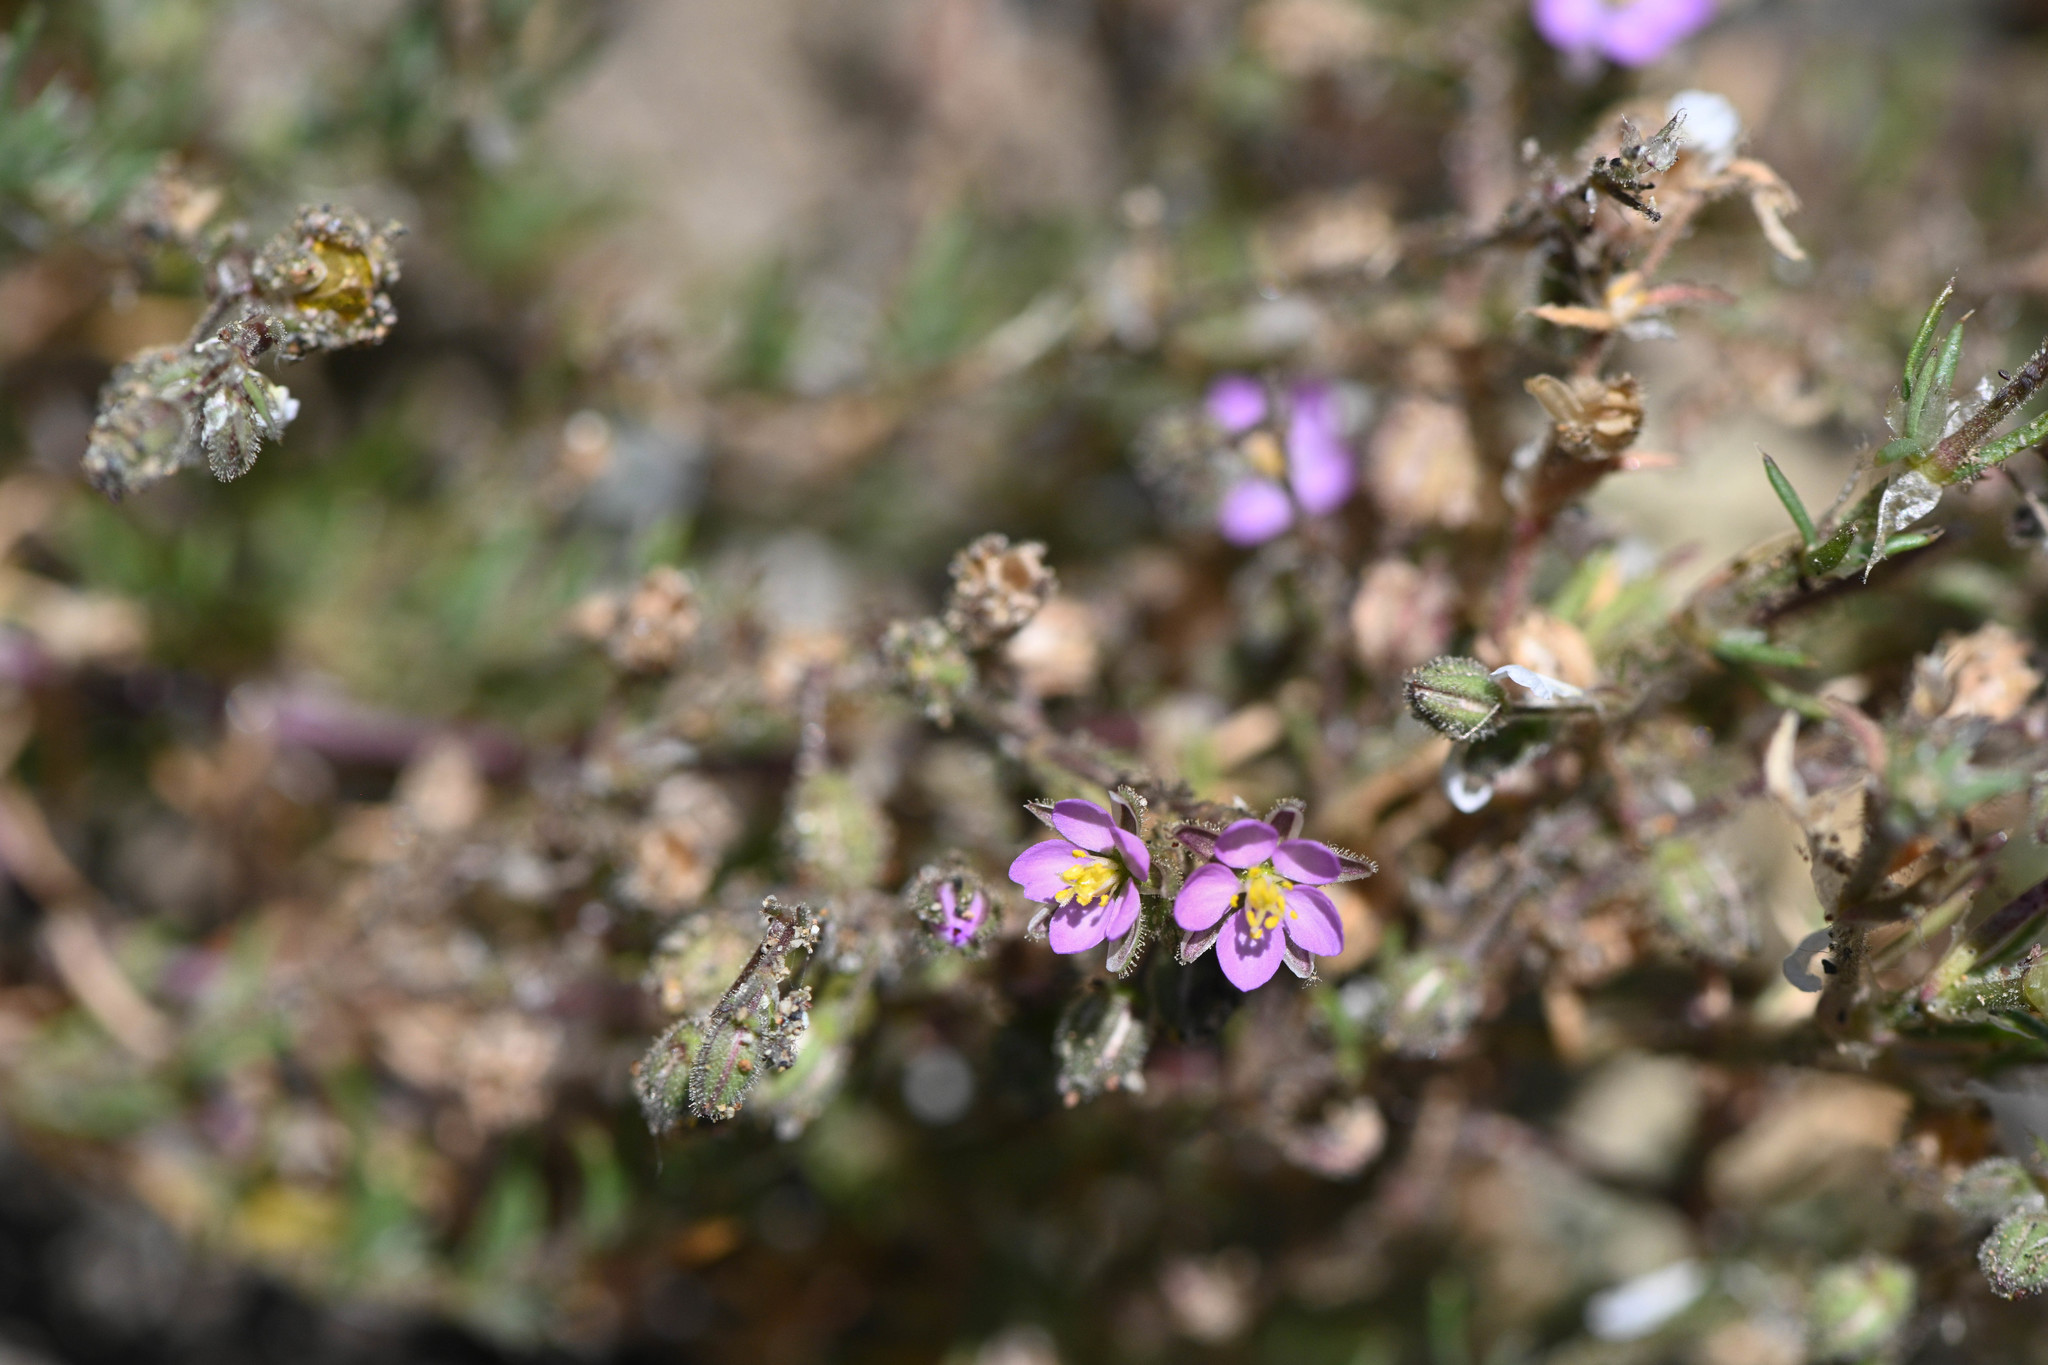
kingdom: Plantae
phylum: Tracheophyta
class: Magnoliopsida
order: Caryophyllales
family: Caryophyllaceae
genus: Spergularia
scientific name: Spergularia rubra
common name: Red sand-spurrey
